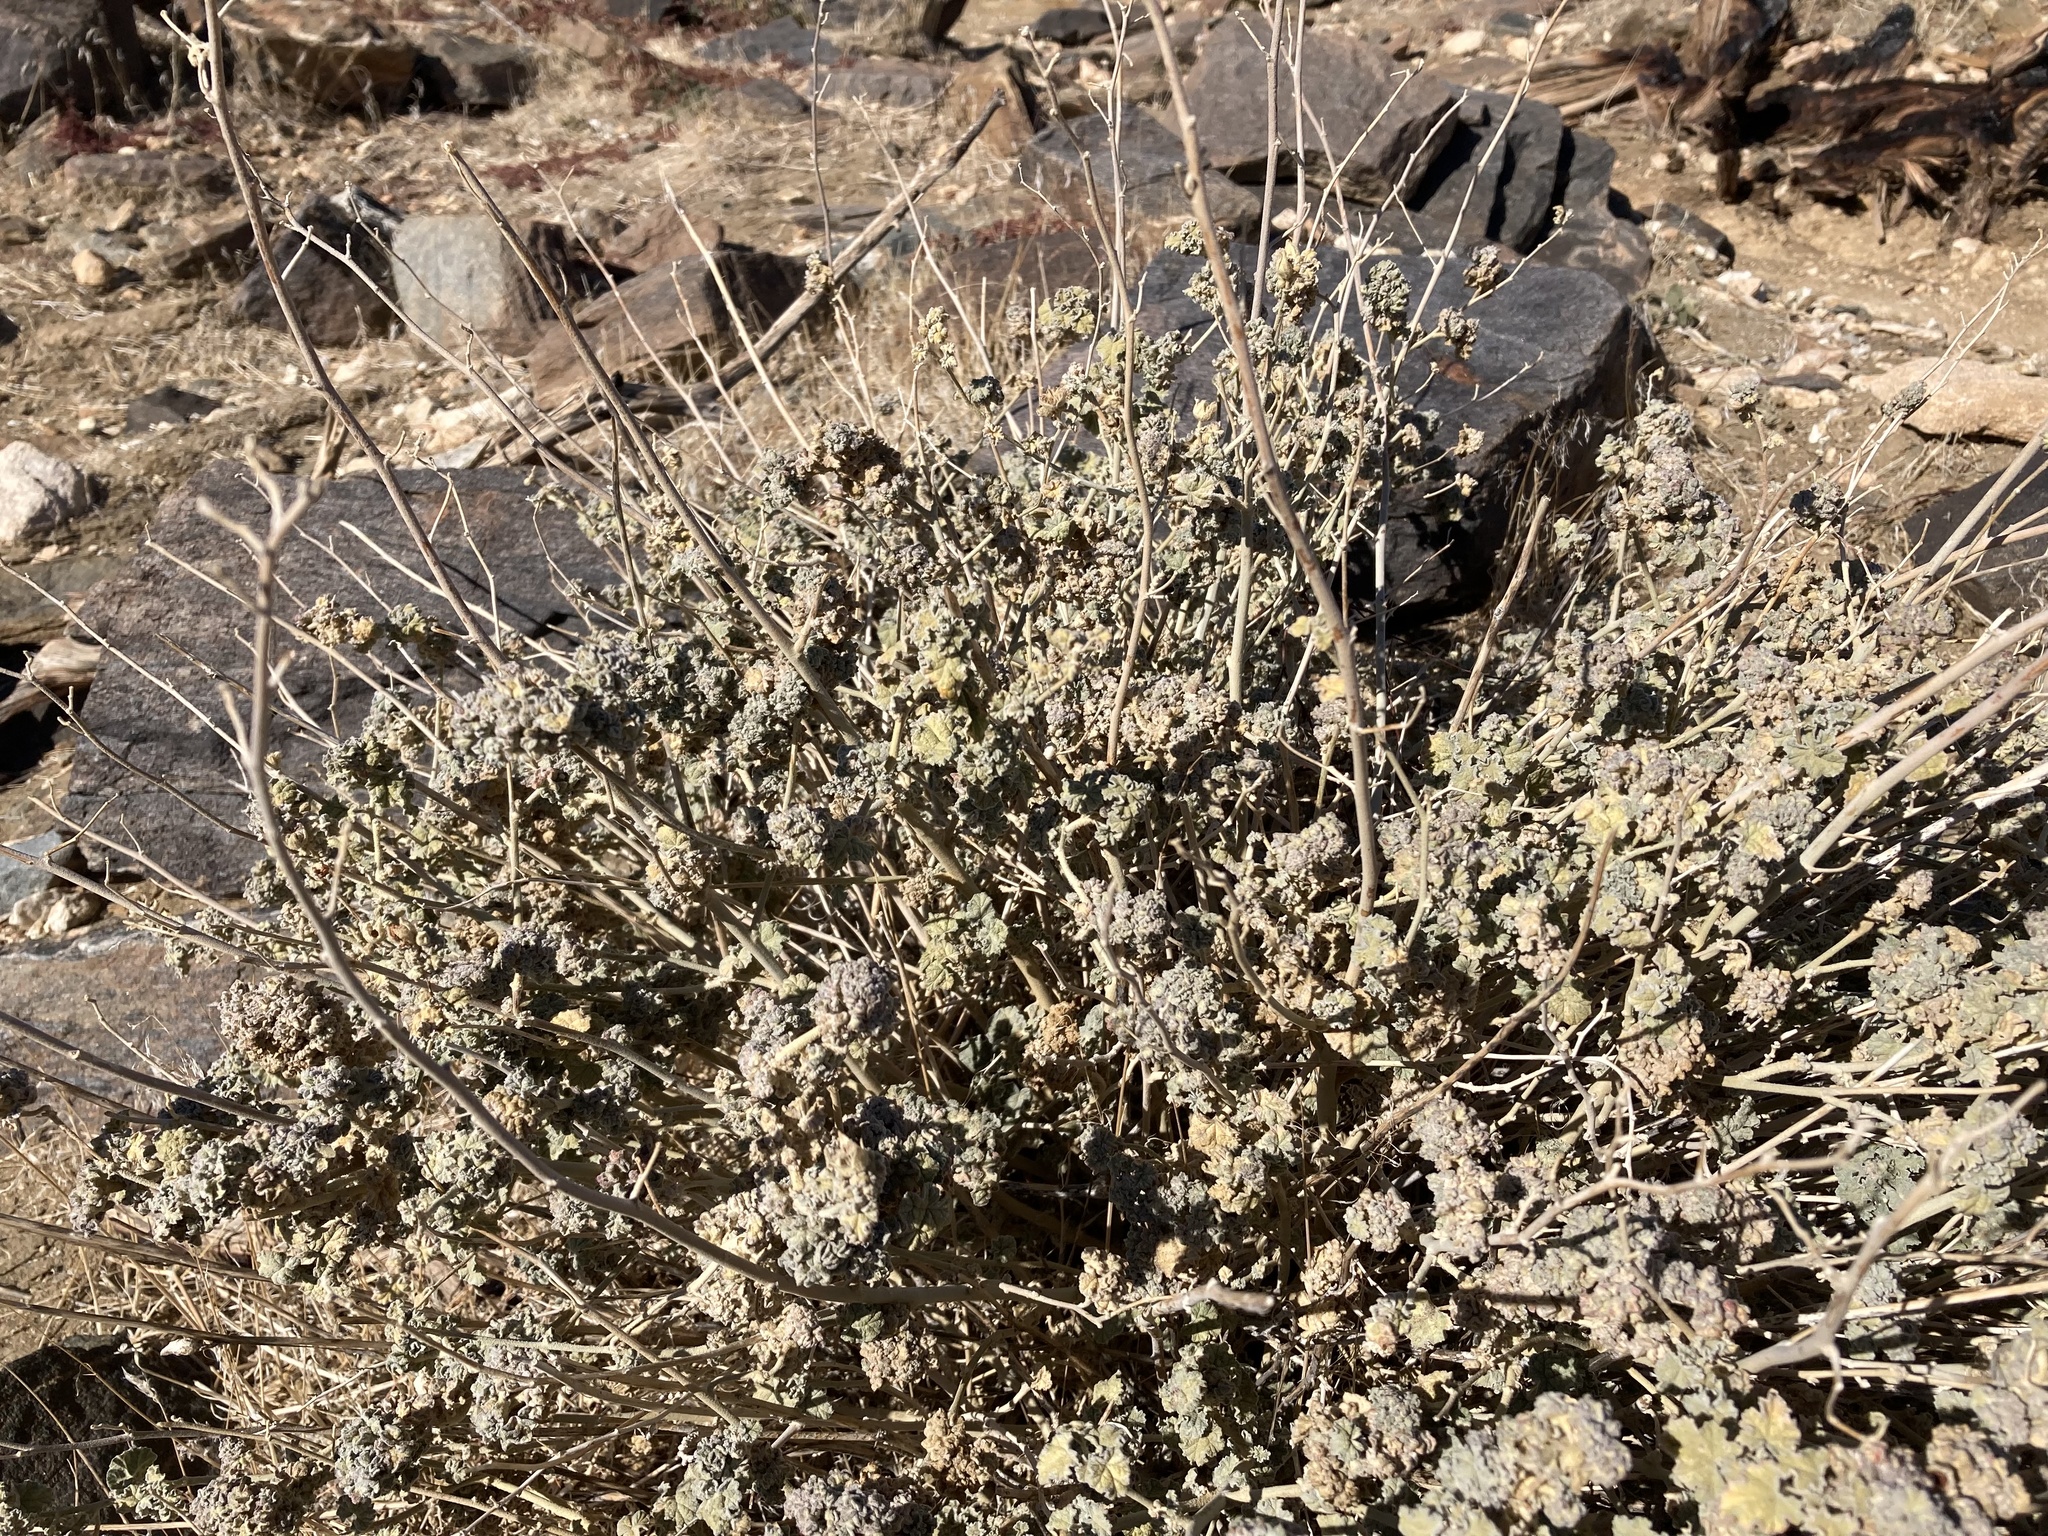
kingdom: Plantae
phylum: Tracheophyta
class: Magnoliopsida
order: Malvales
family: Malvaceae
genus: Sphaeralcea
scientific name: Sphaeralcea ambigua
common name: Apricot globe-mallow
